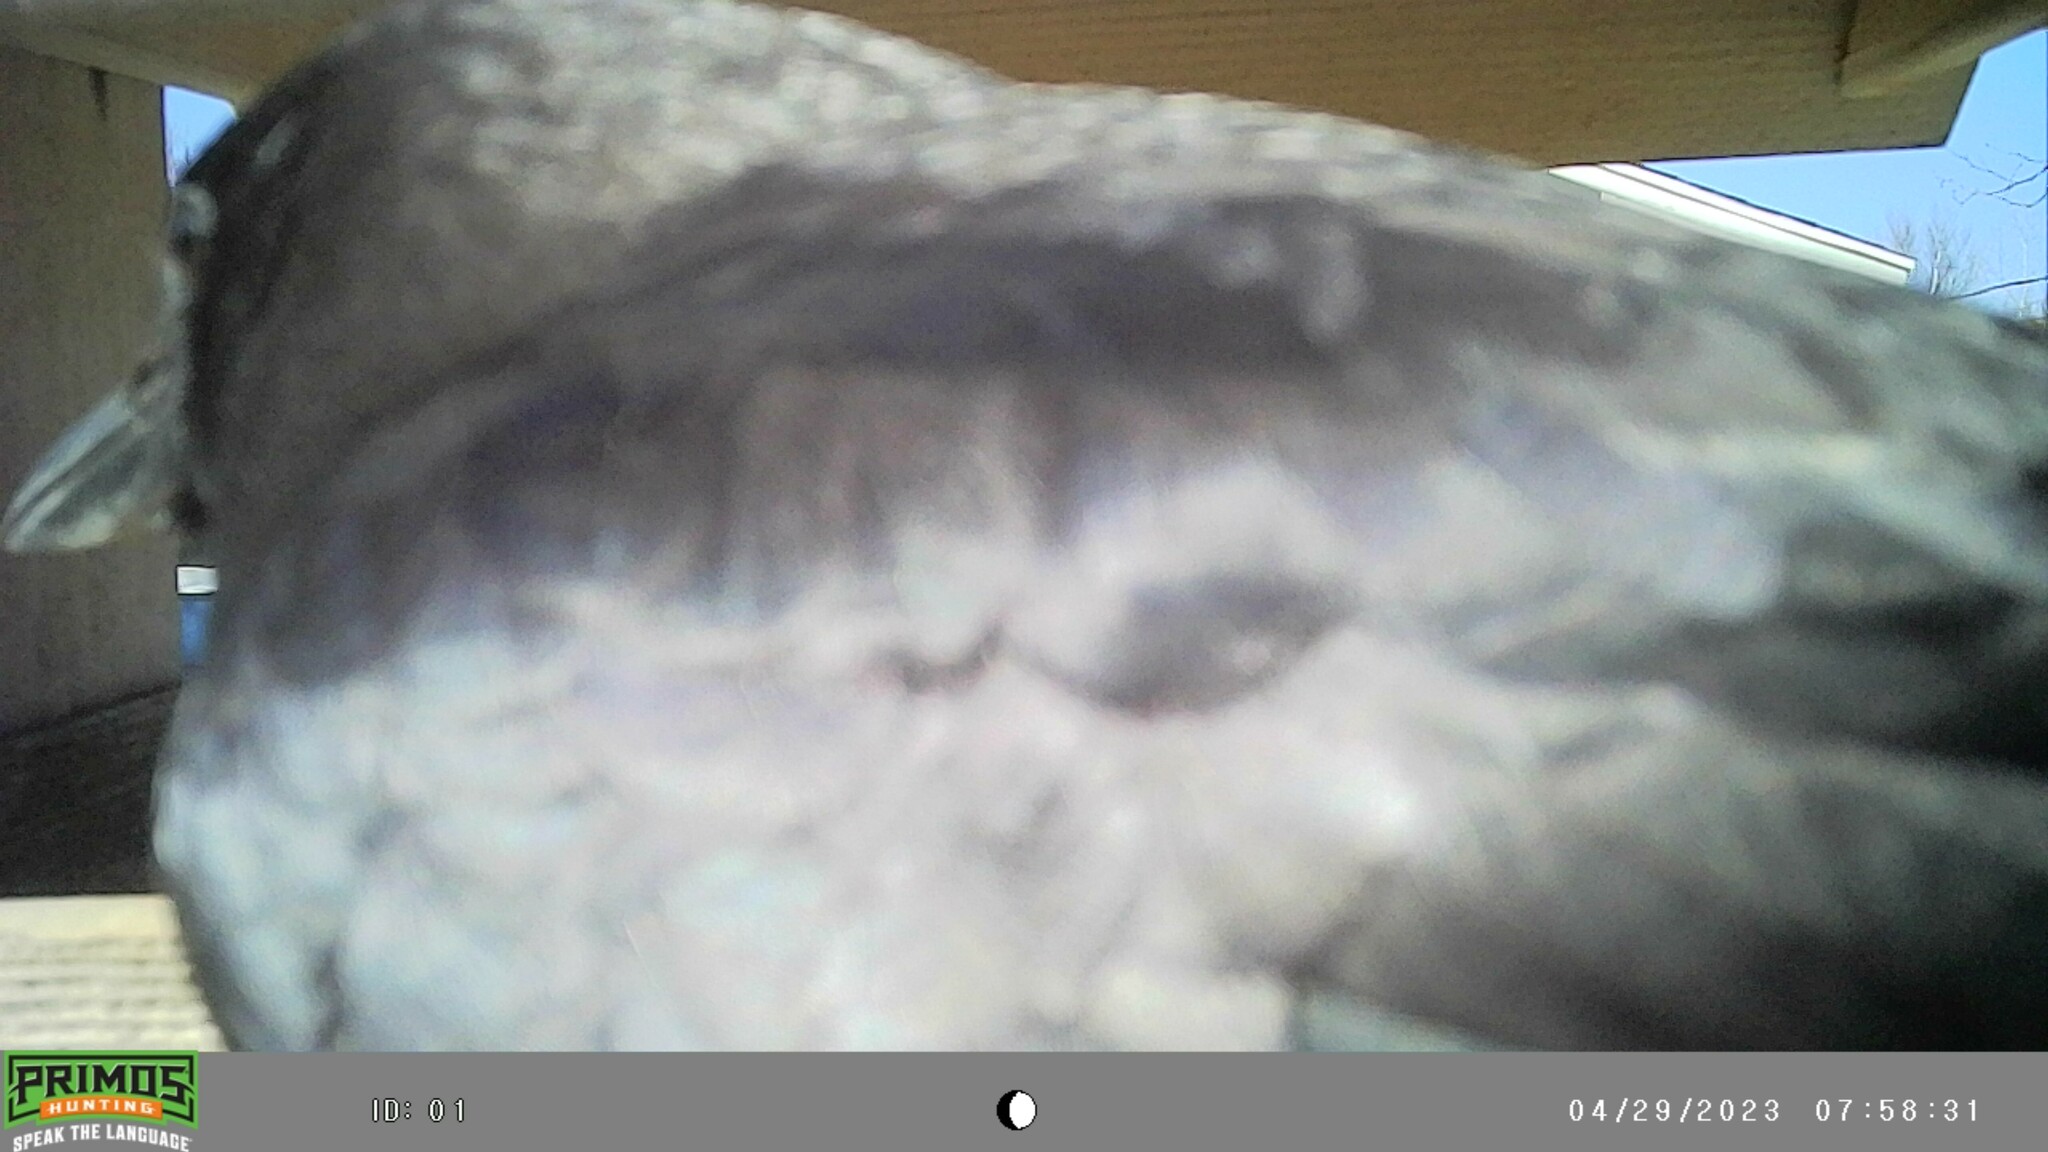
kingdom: Animalia
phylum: Chordata
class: Aves
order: Passeriformes
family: Corvidae
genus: Corvus
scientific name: Corvus brachyrhynchos
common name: American crow
